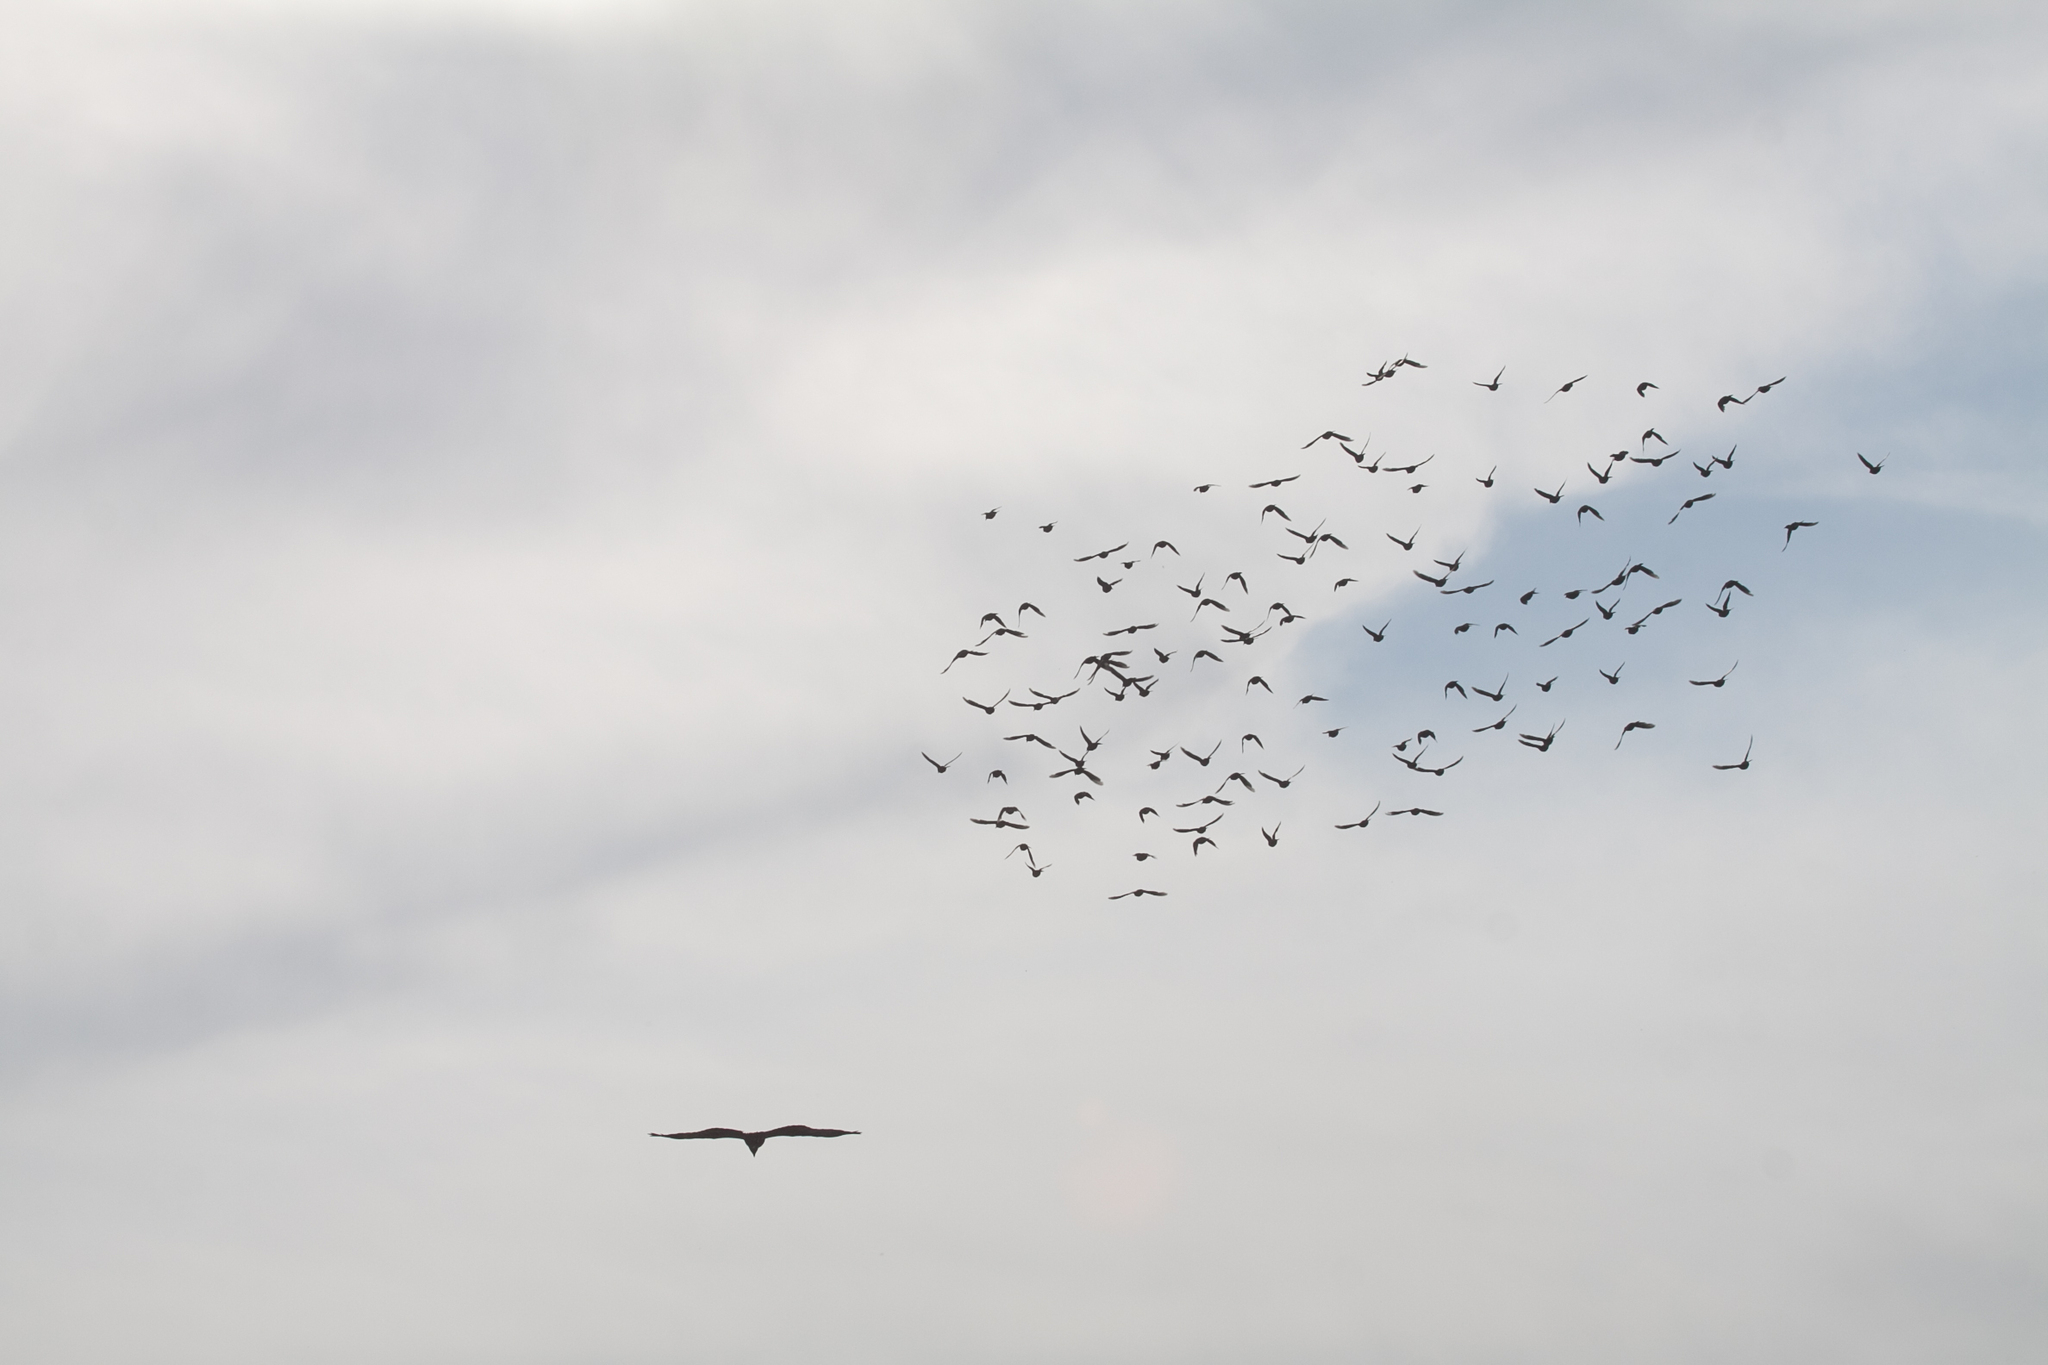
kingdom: Animalia
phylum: Chordata
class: Aves
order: Accipitriformes
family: Accipitridae
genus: Milvus
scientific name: Milvus migrans
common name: Black kite
